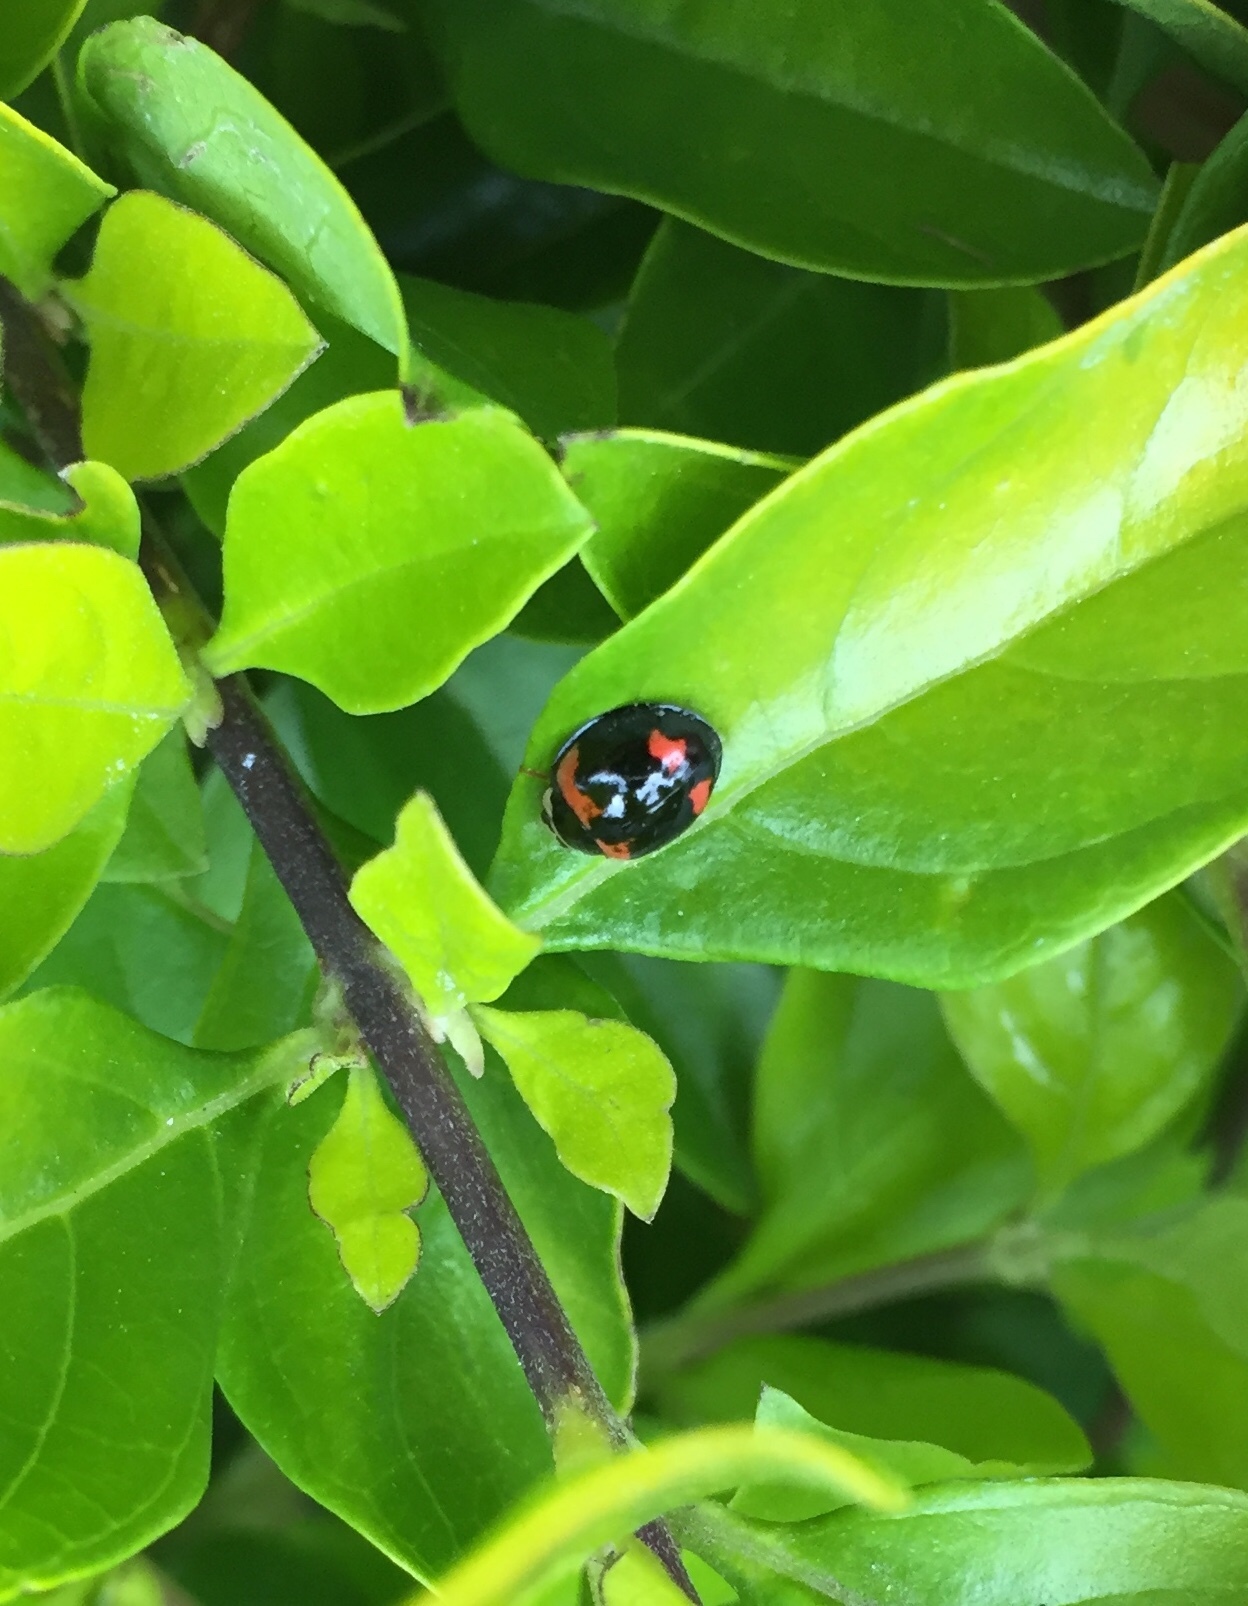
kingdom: Animalia
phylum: Arthropoda
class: Insecta
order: Coleoptera
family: Coccinellidae
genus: Cheilomenes
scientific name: Cheilomenes sexmaculata
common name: Ladybird beetle
